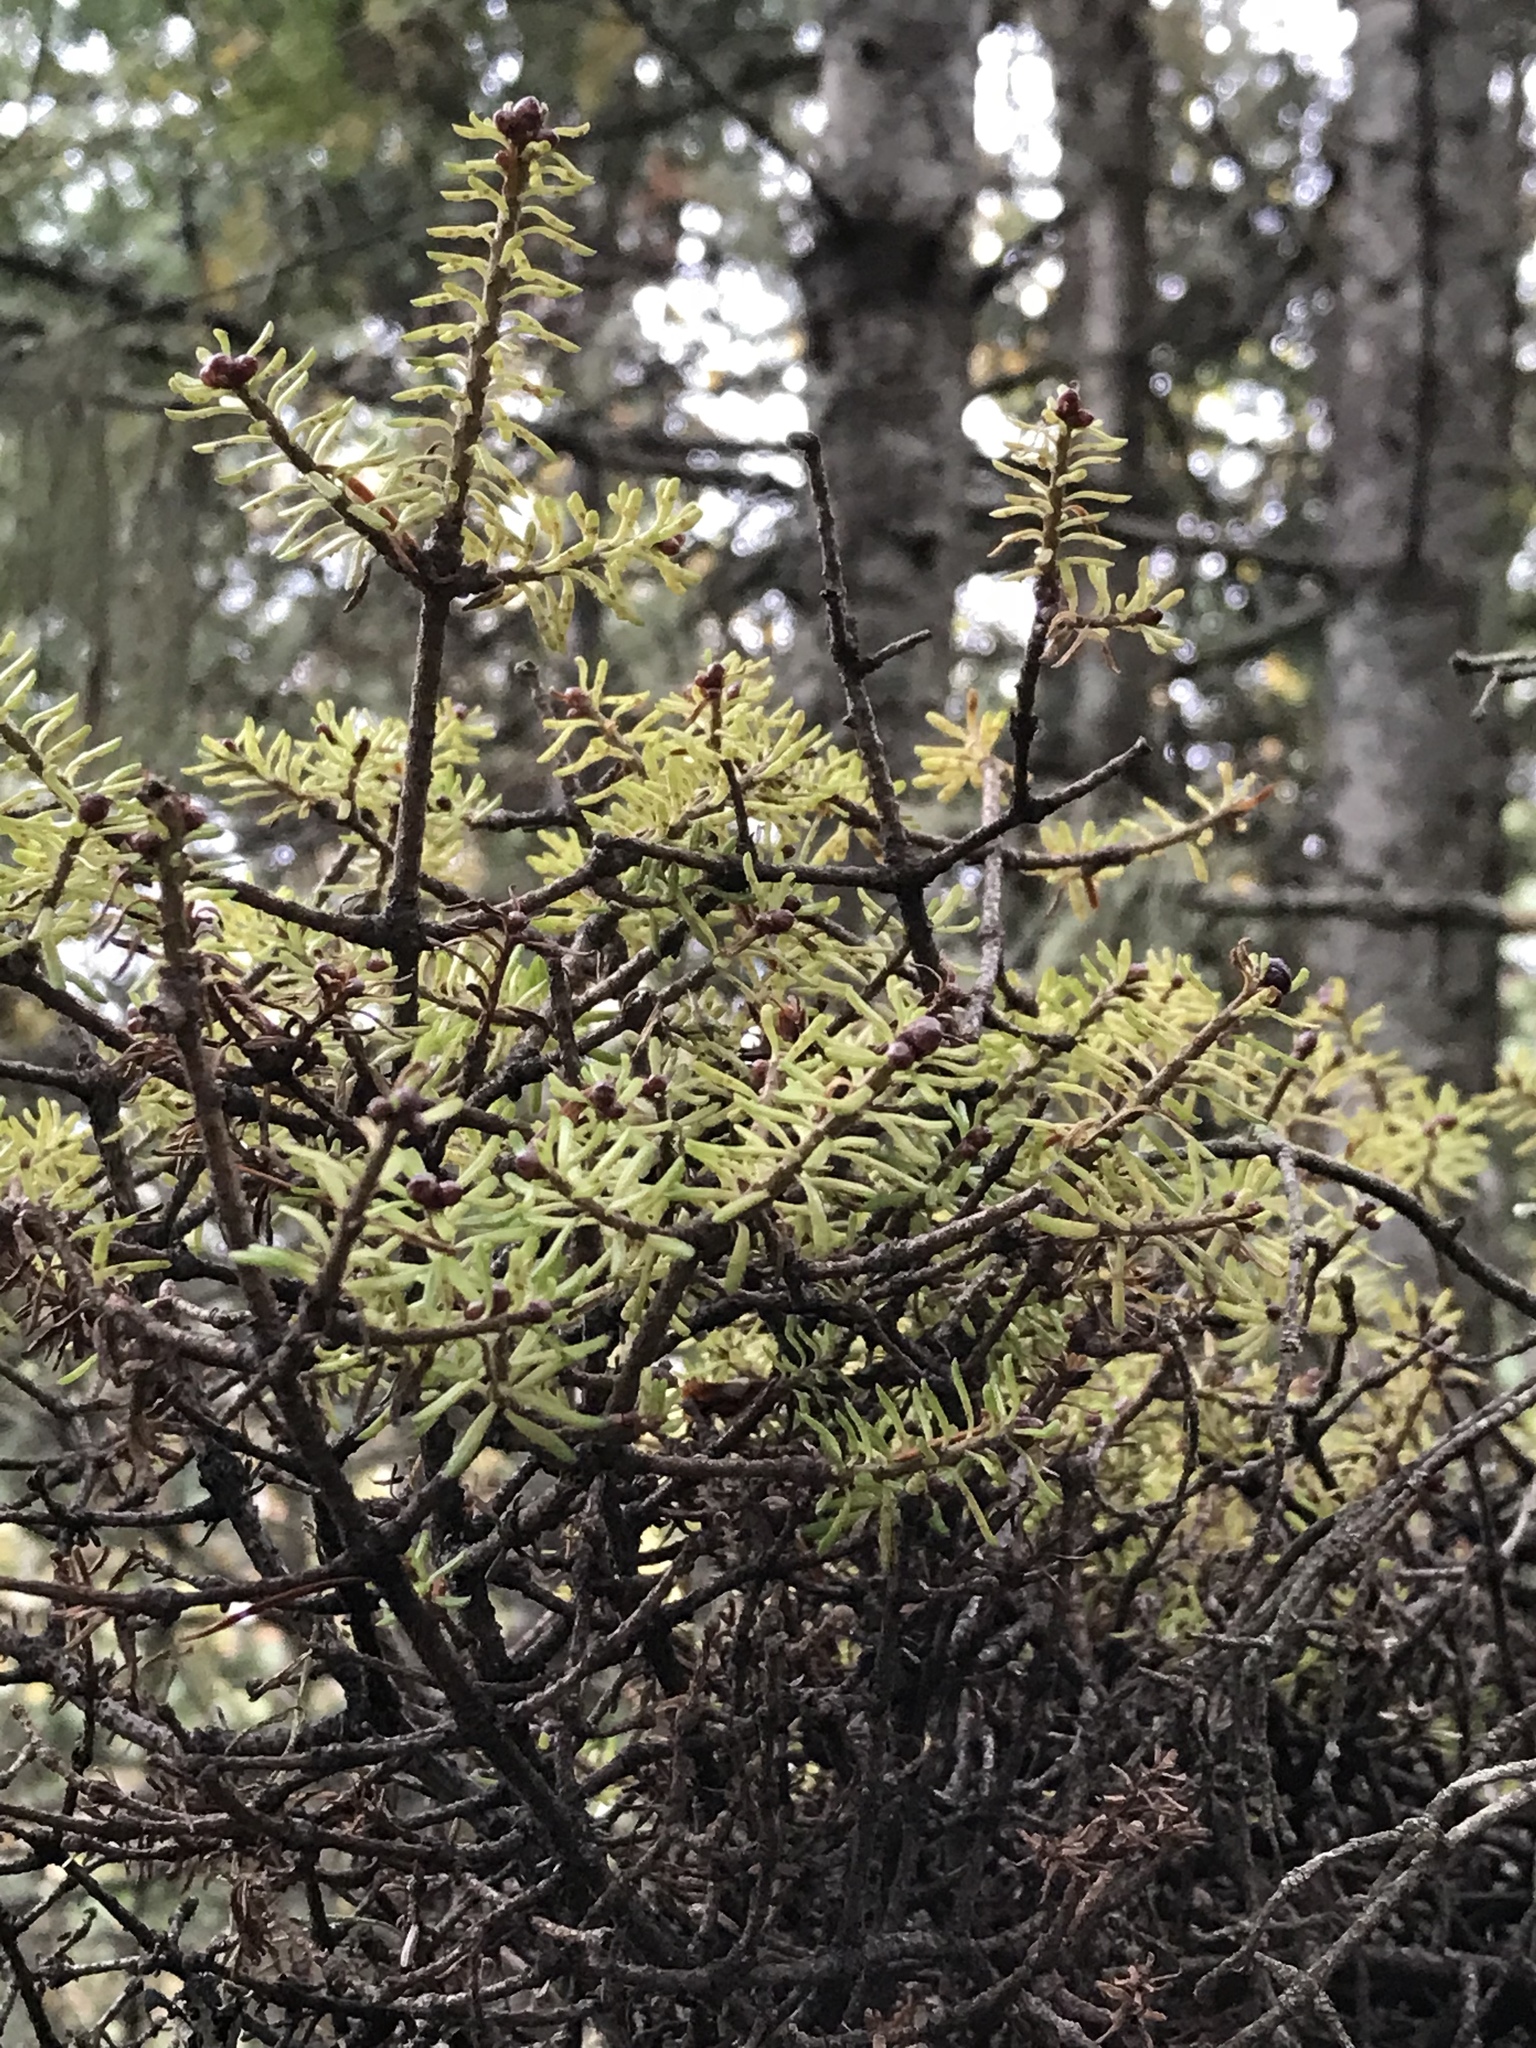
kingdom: Fungi
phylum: Basidiomycota
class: Pucciniomycetes
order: Pucciniales
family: Pucciniastraceae
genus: Melampsorella
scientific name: Melampsorella elatina
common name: Fir broom rust
